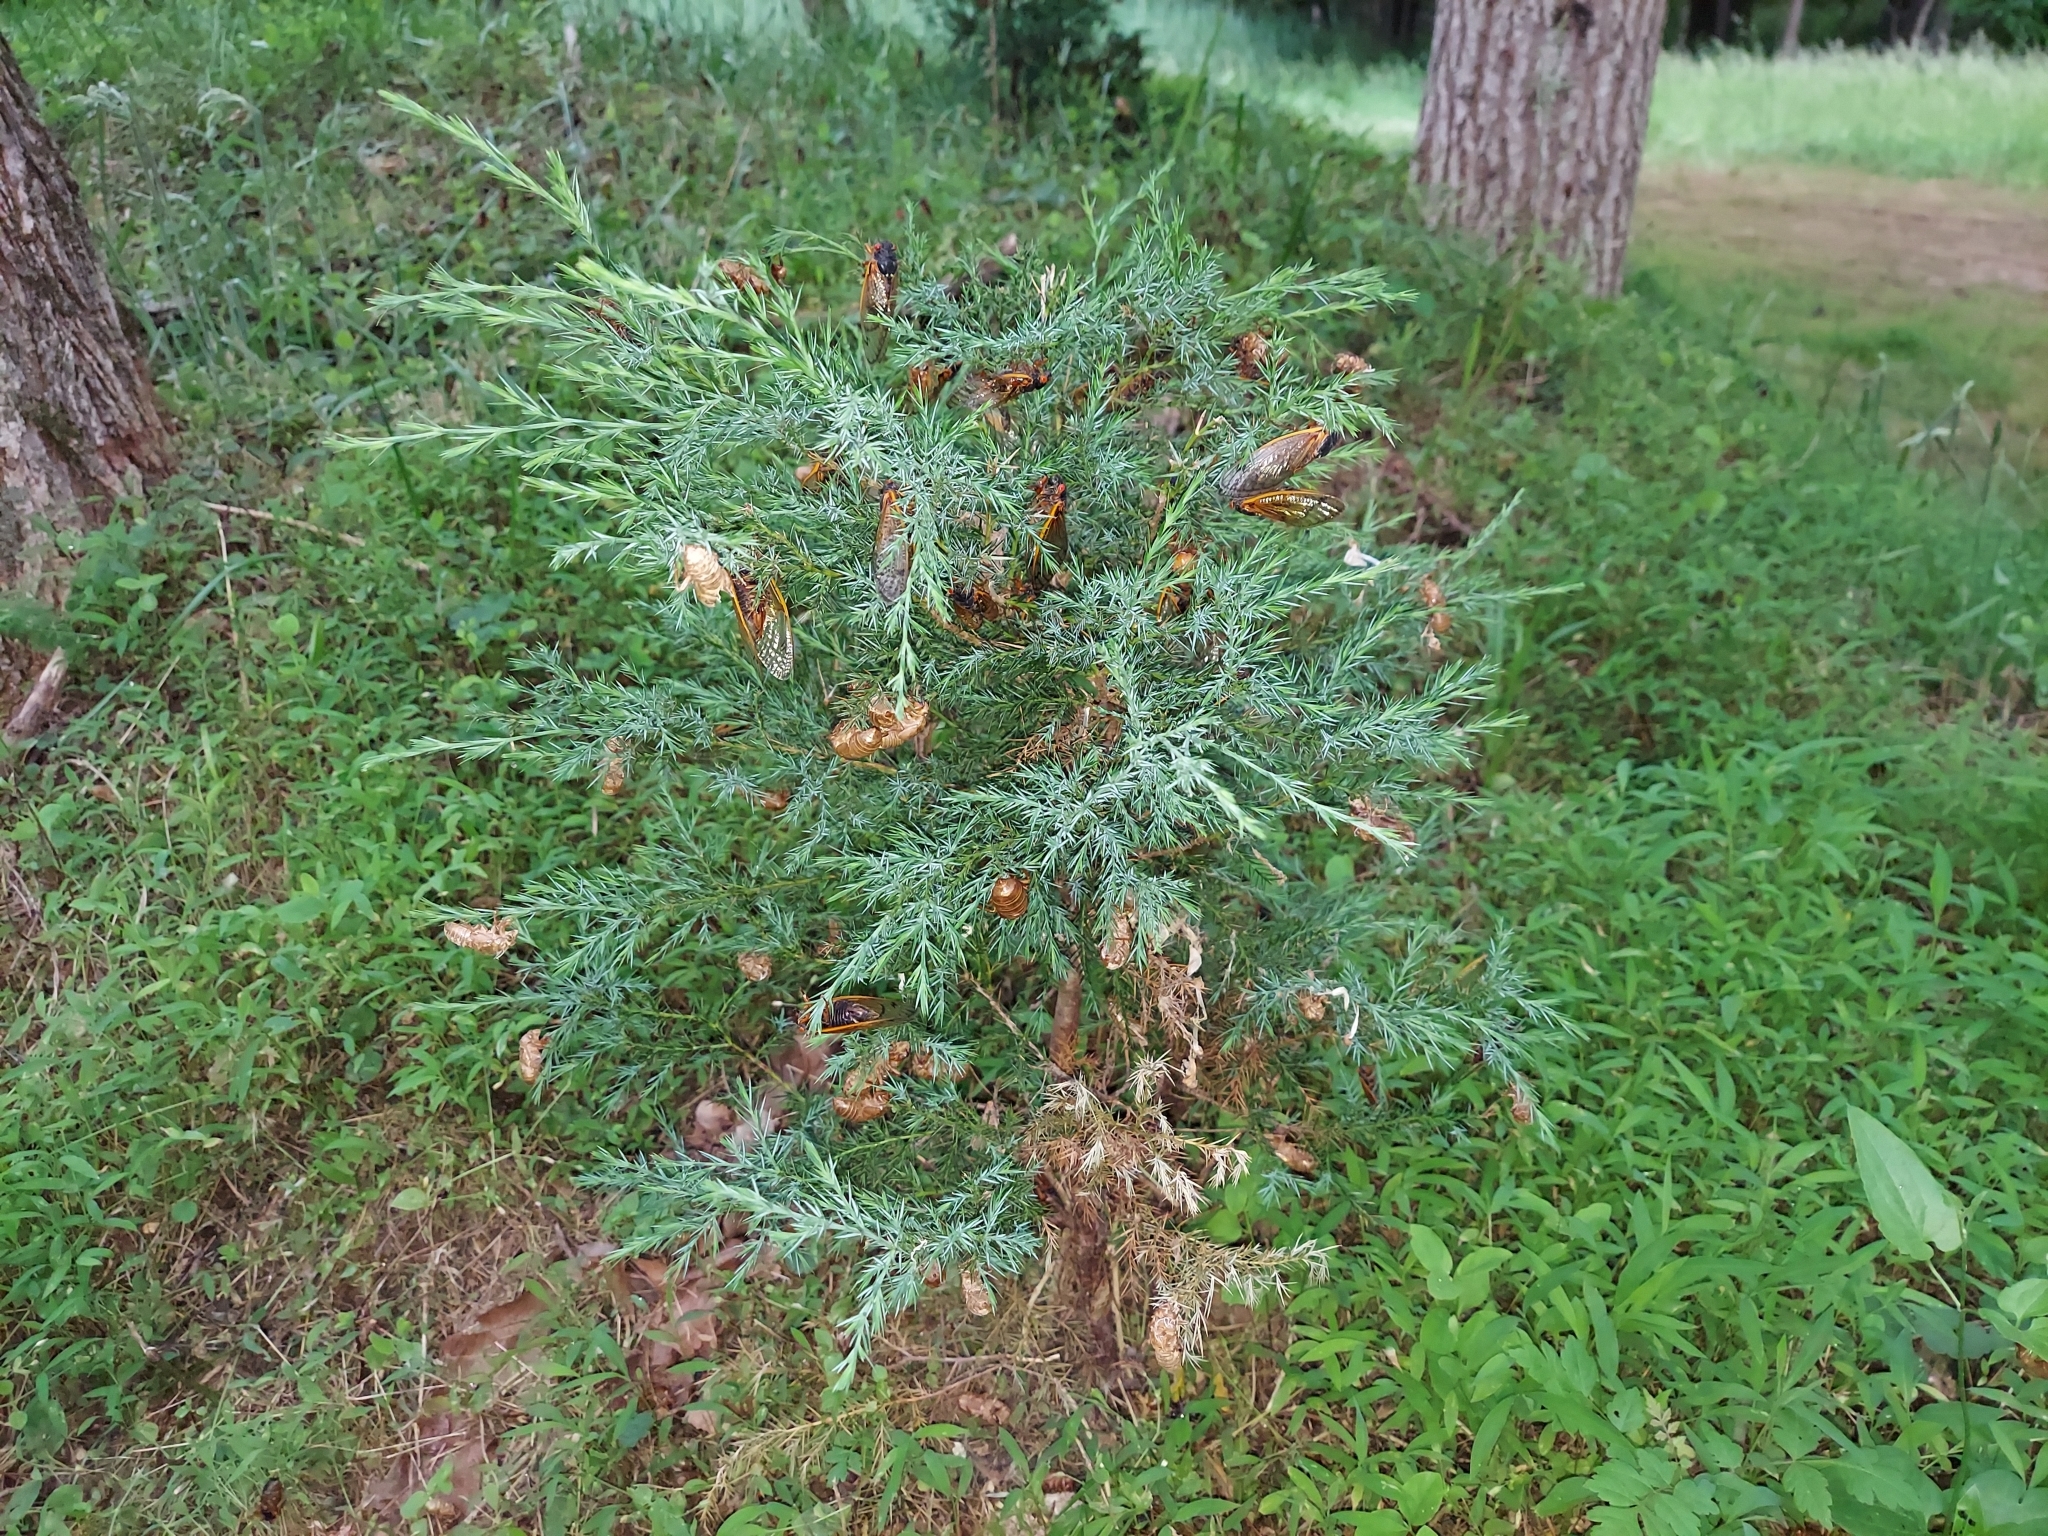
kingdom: Plantae
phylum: Tracheophyta
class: Pinopsida
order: Pinales
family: Cupressaceae
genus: Juniperus
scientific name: Juniperus virginiana
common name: Red juniper
